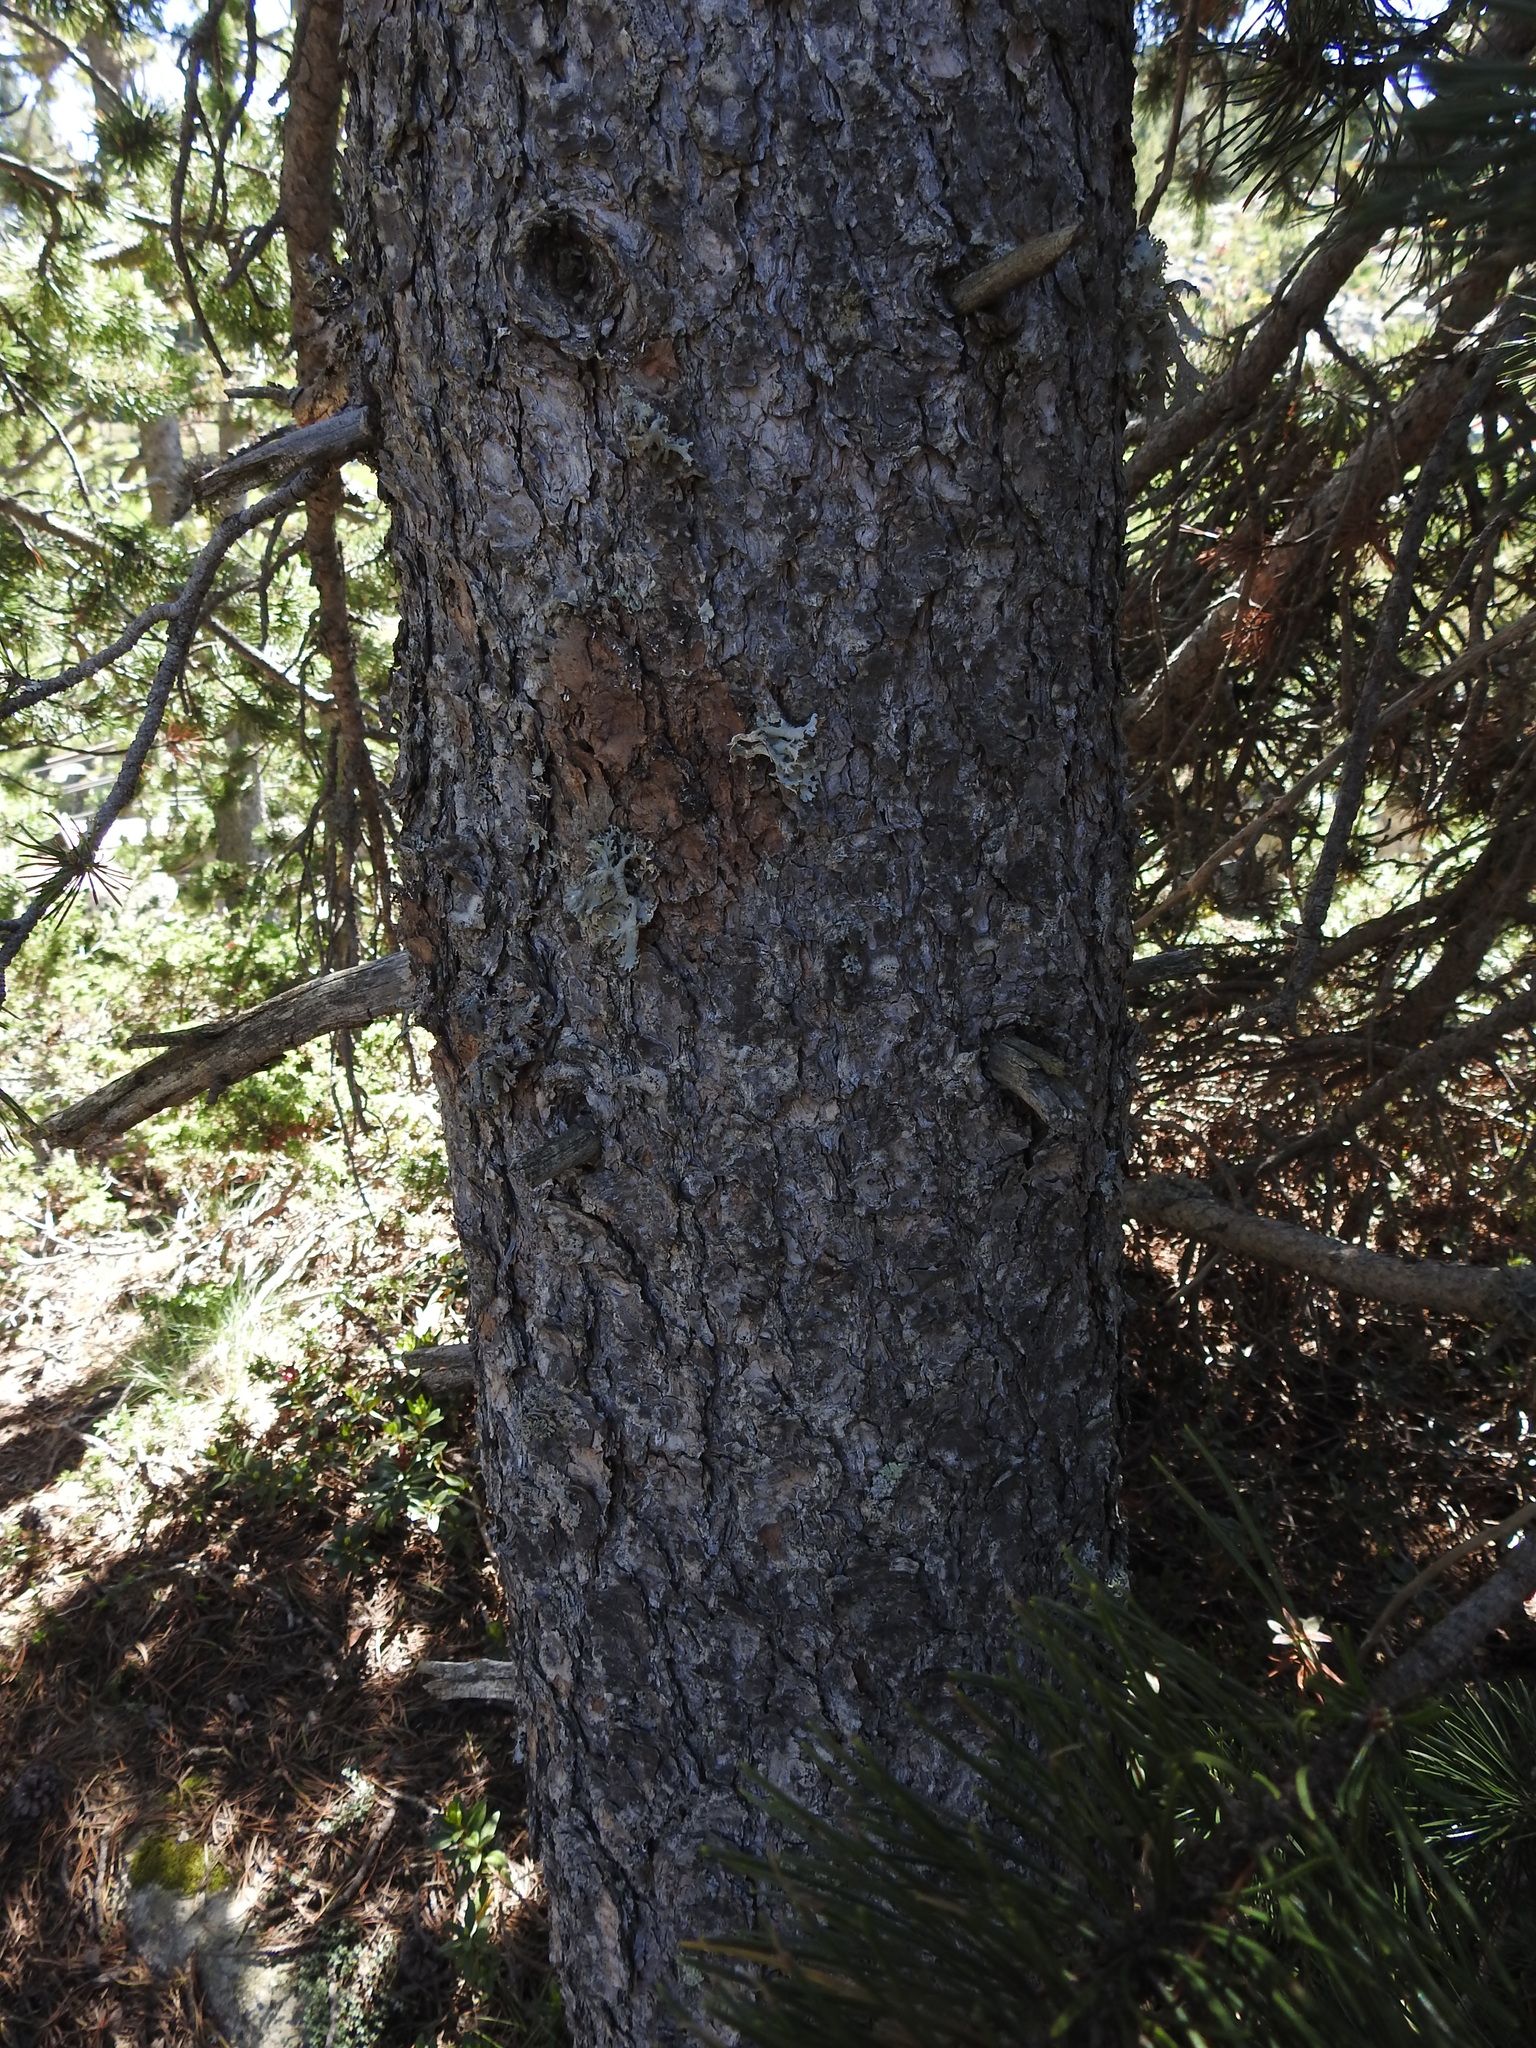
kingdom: Plantae
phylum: Tracheophyta
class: Pinopsida
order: Pinales
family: Pinaceae
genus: Pinus
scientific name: Pinus uncinata
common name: Mountain pine
